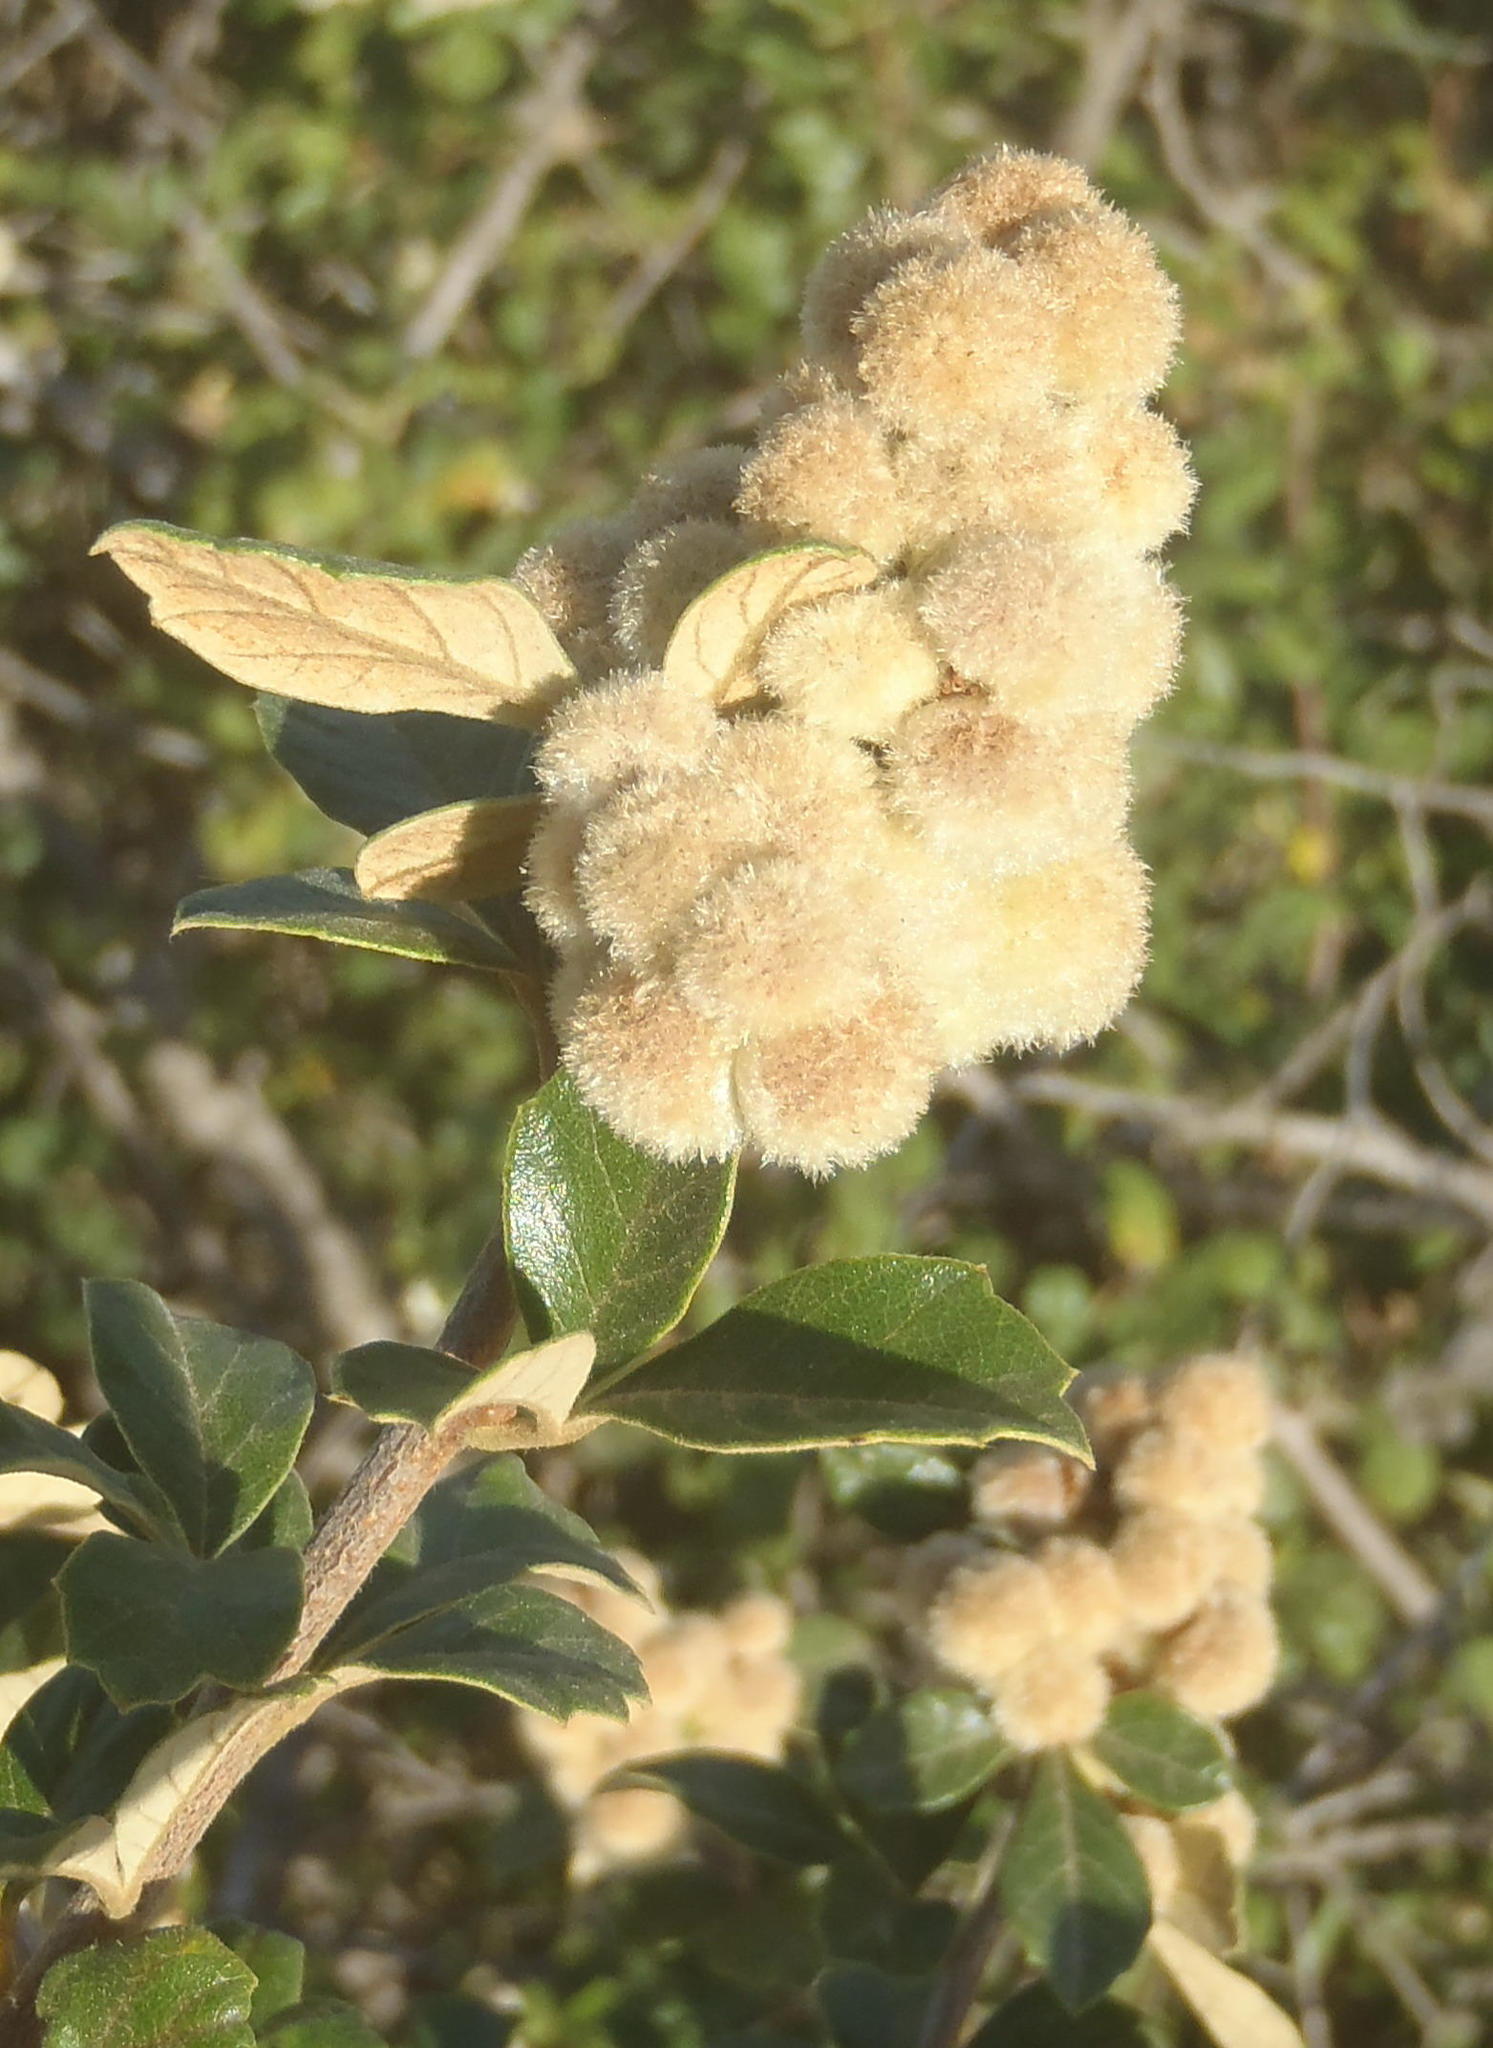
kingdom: Plantae
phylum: Tracheophyta
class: Magnoliopsida
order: Sapindales
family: Anacardiaceae
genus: Searsia
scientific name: Searsia incisa
